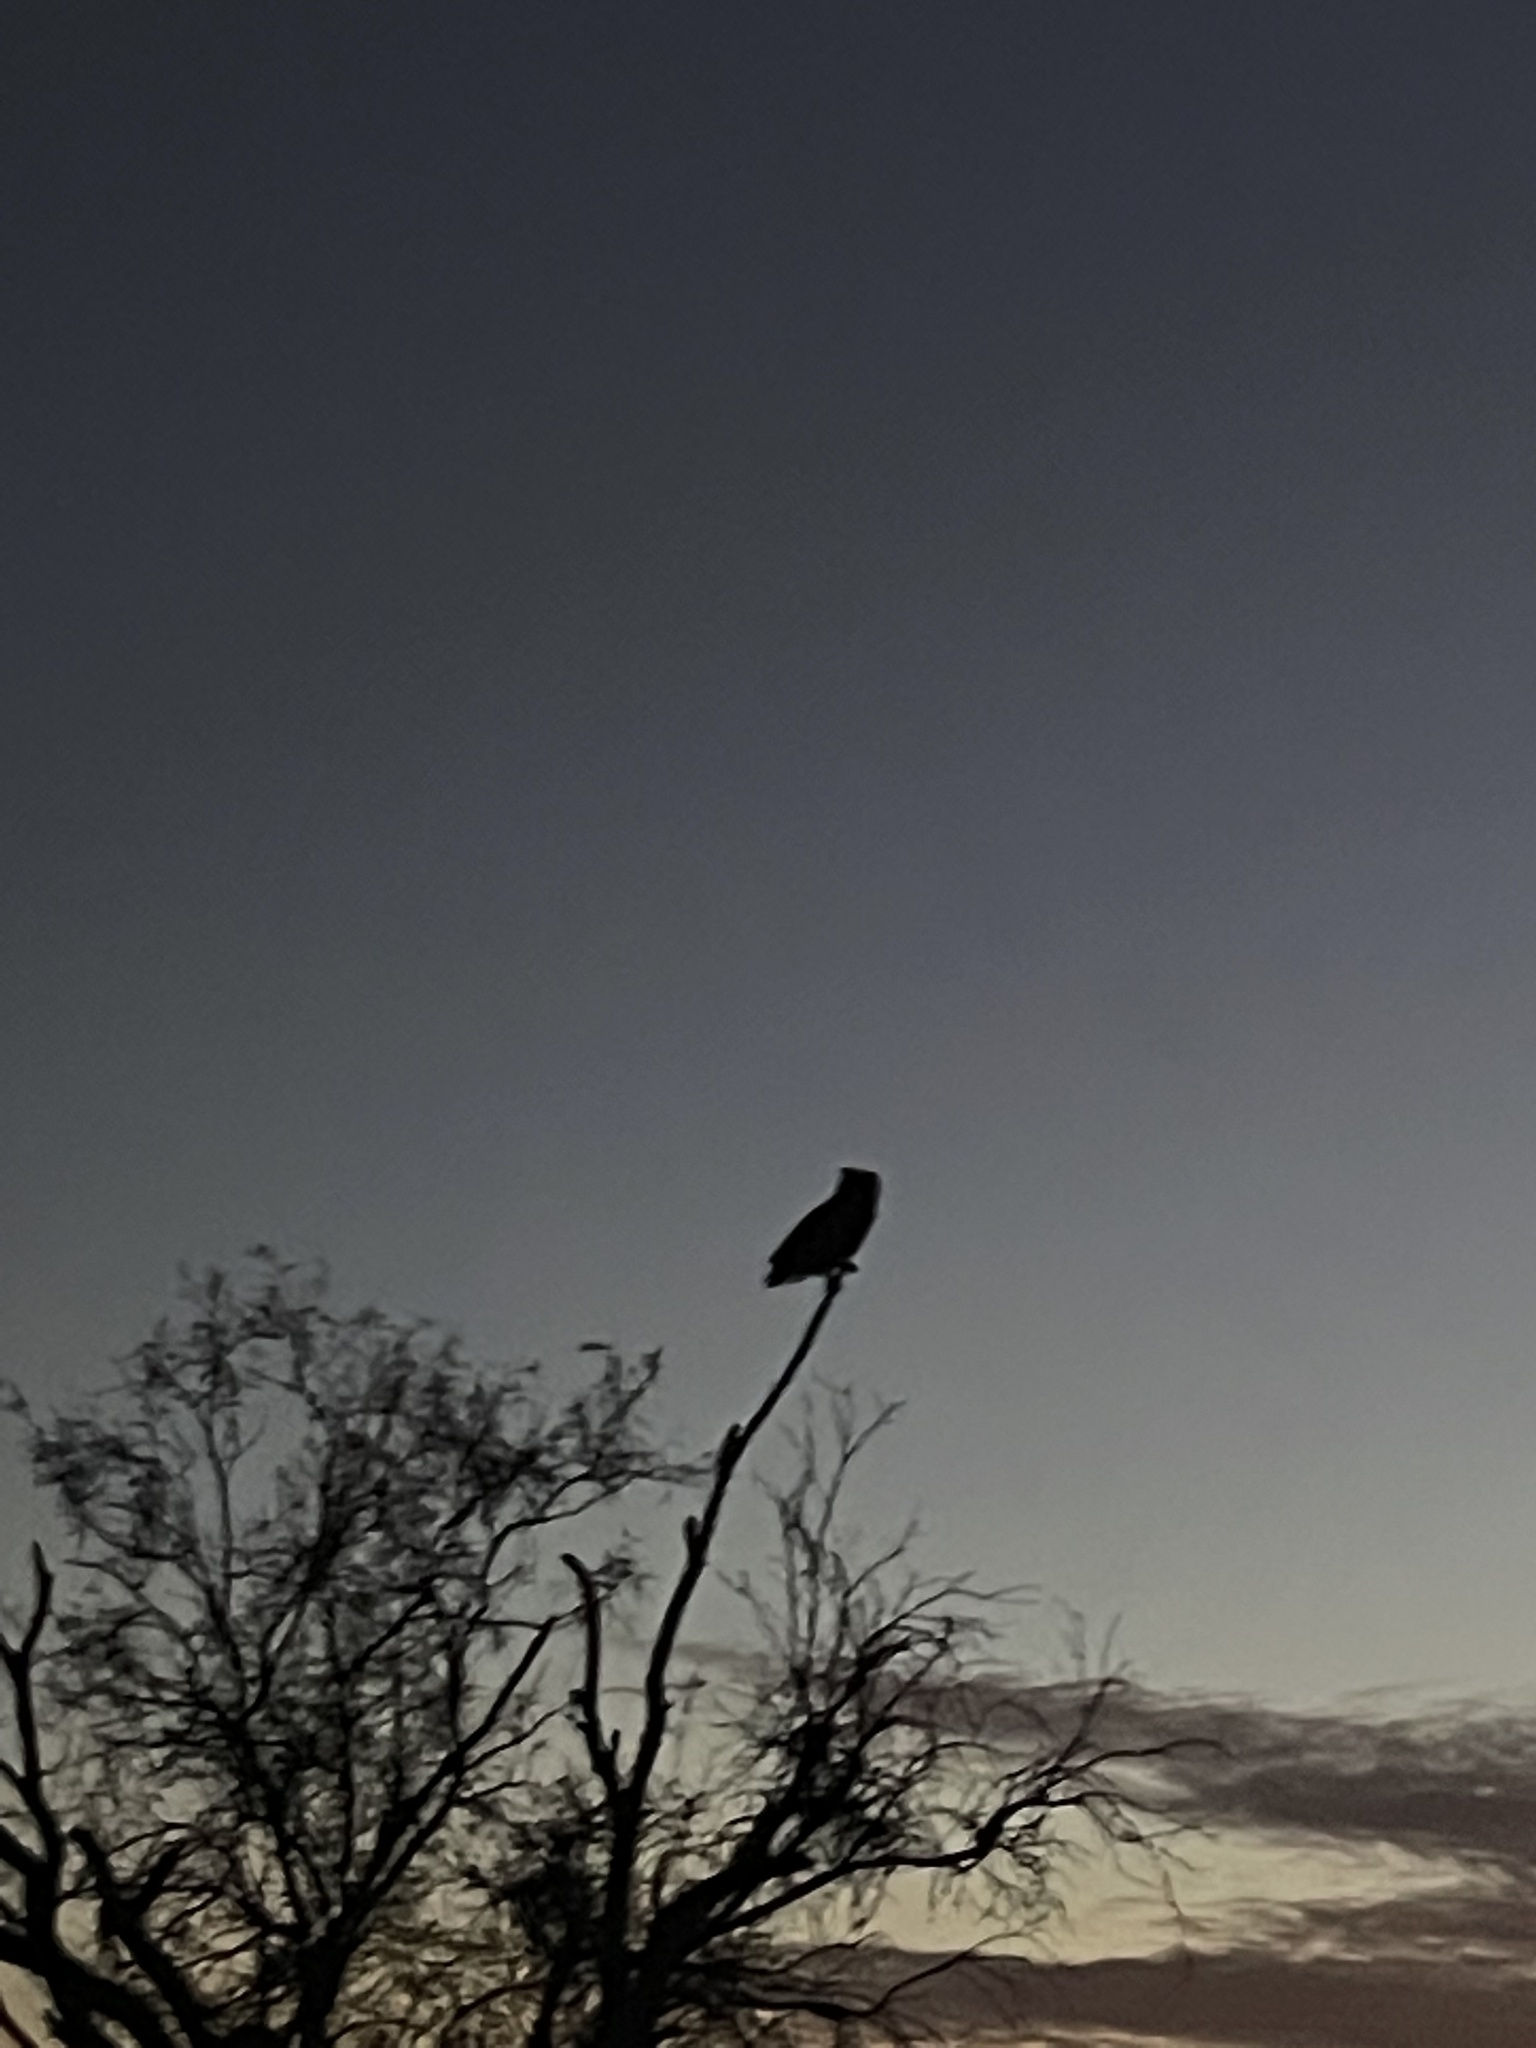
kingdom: Animalia
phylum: Chordata
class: Aves
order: Strigiformes
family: Strigidae
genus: Bubo
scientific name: Bubo virginianus
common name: Great horned owl
